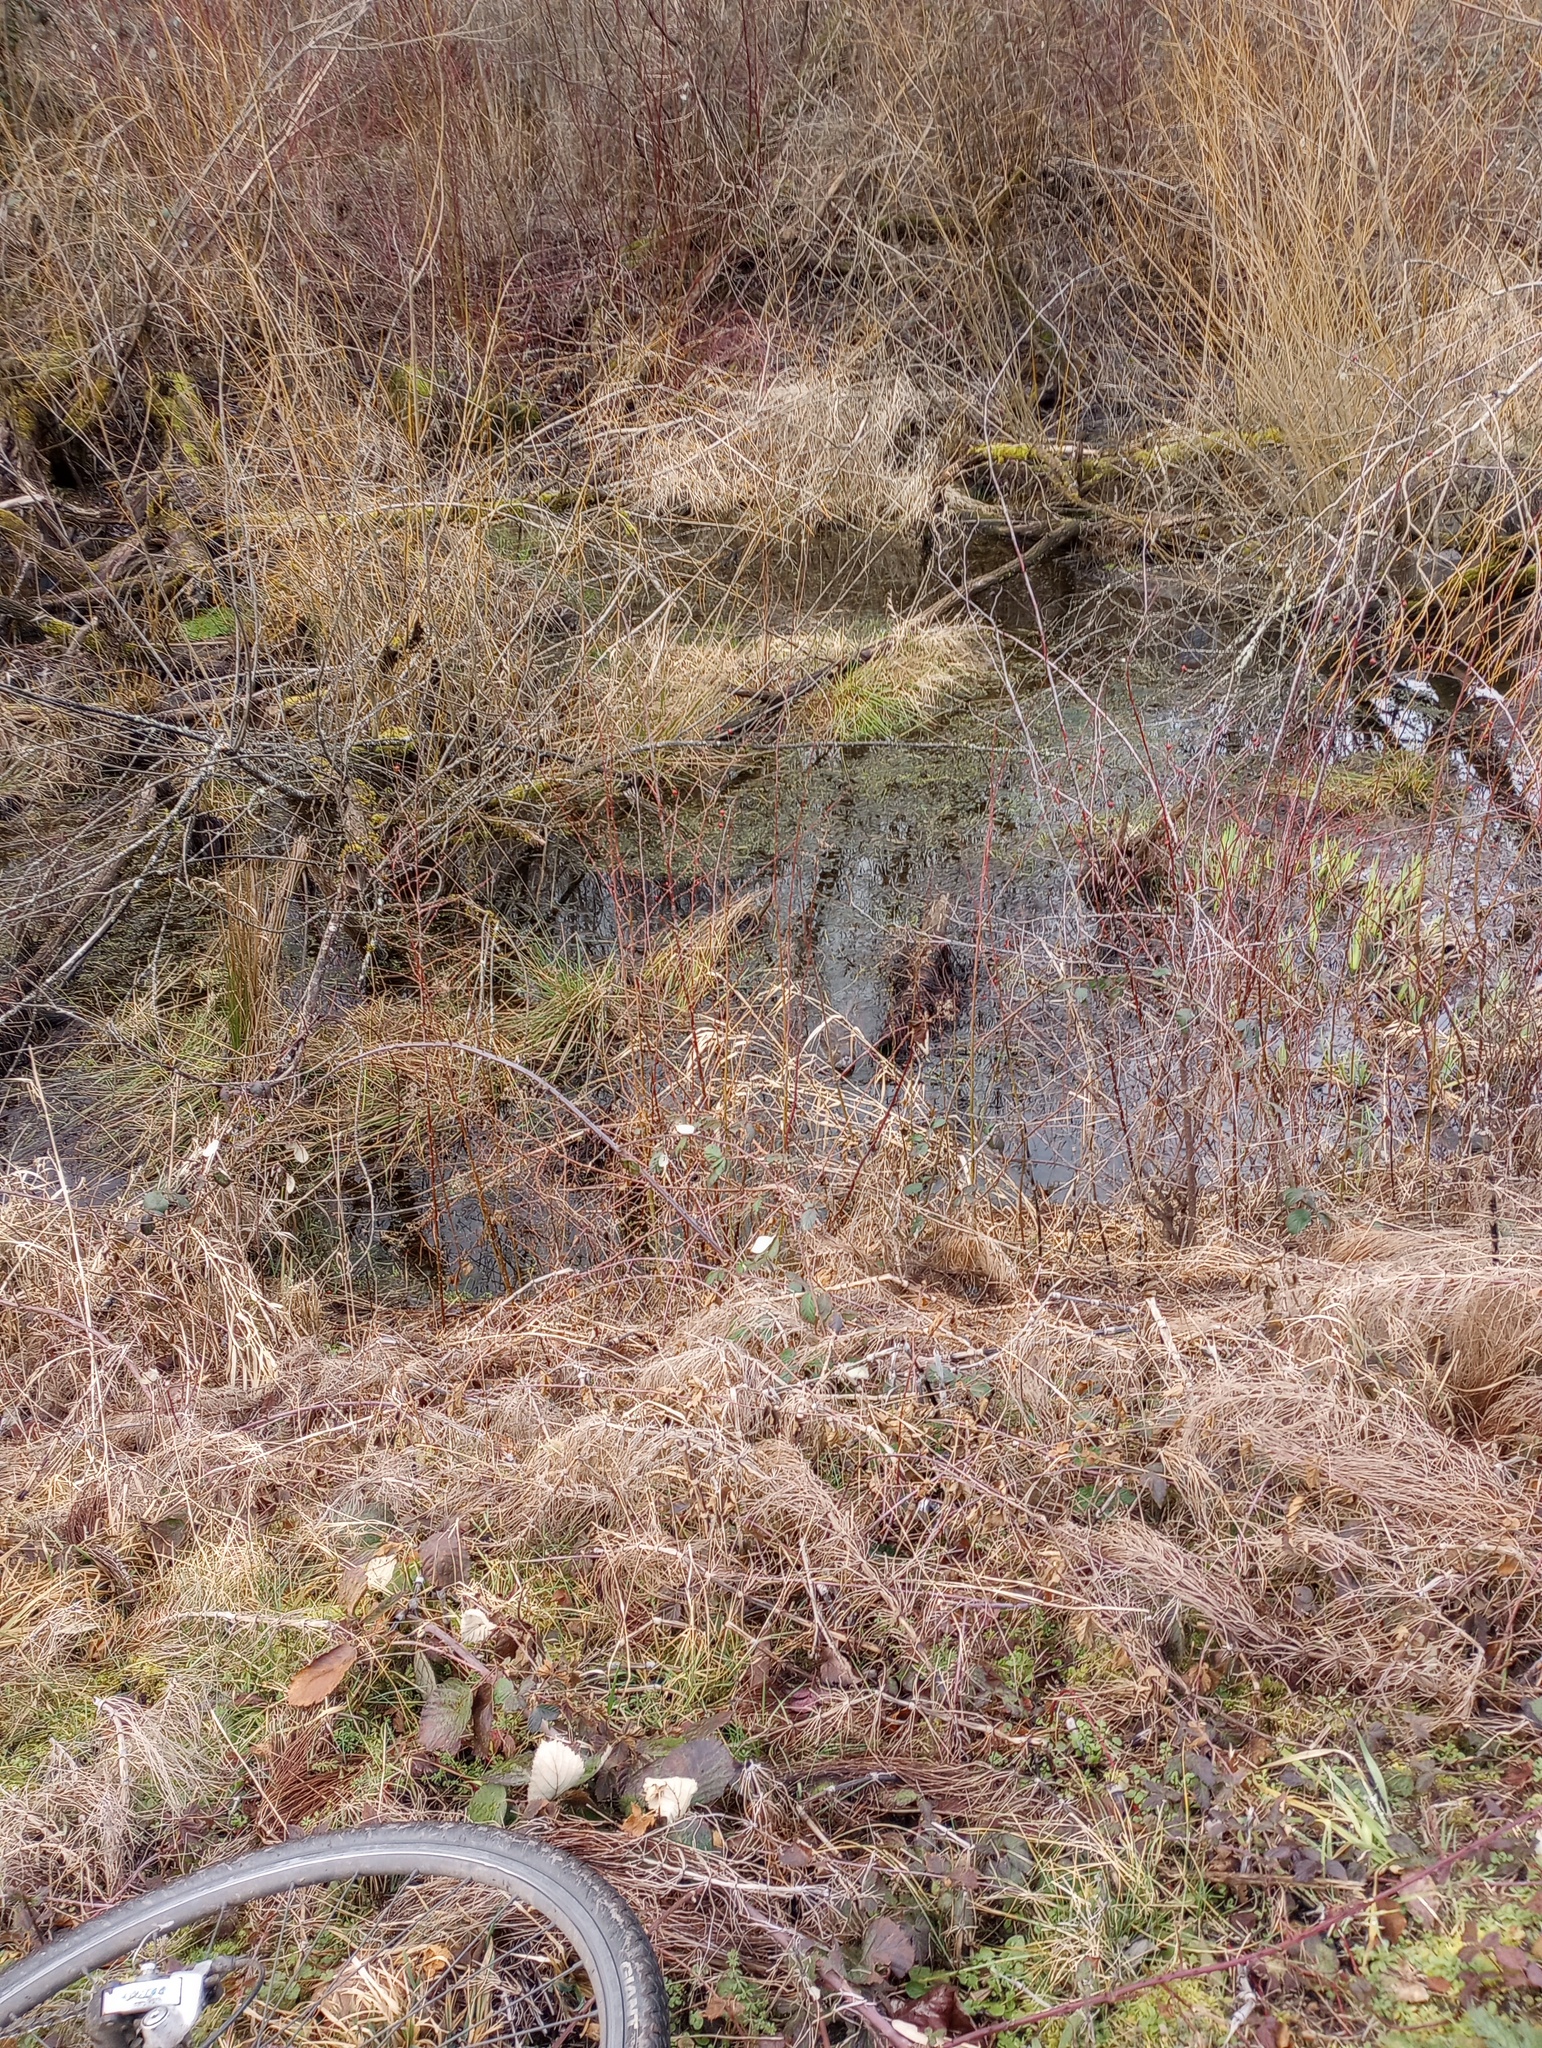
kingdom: Animalia
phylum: Chordata
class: Mammalia
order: Rodentia
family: Myocastoridae
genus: Myocastor
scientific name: Myocastor coypus
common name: Coypu
